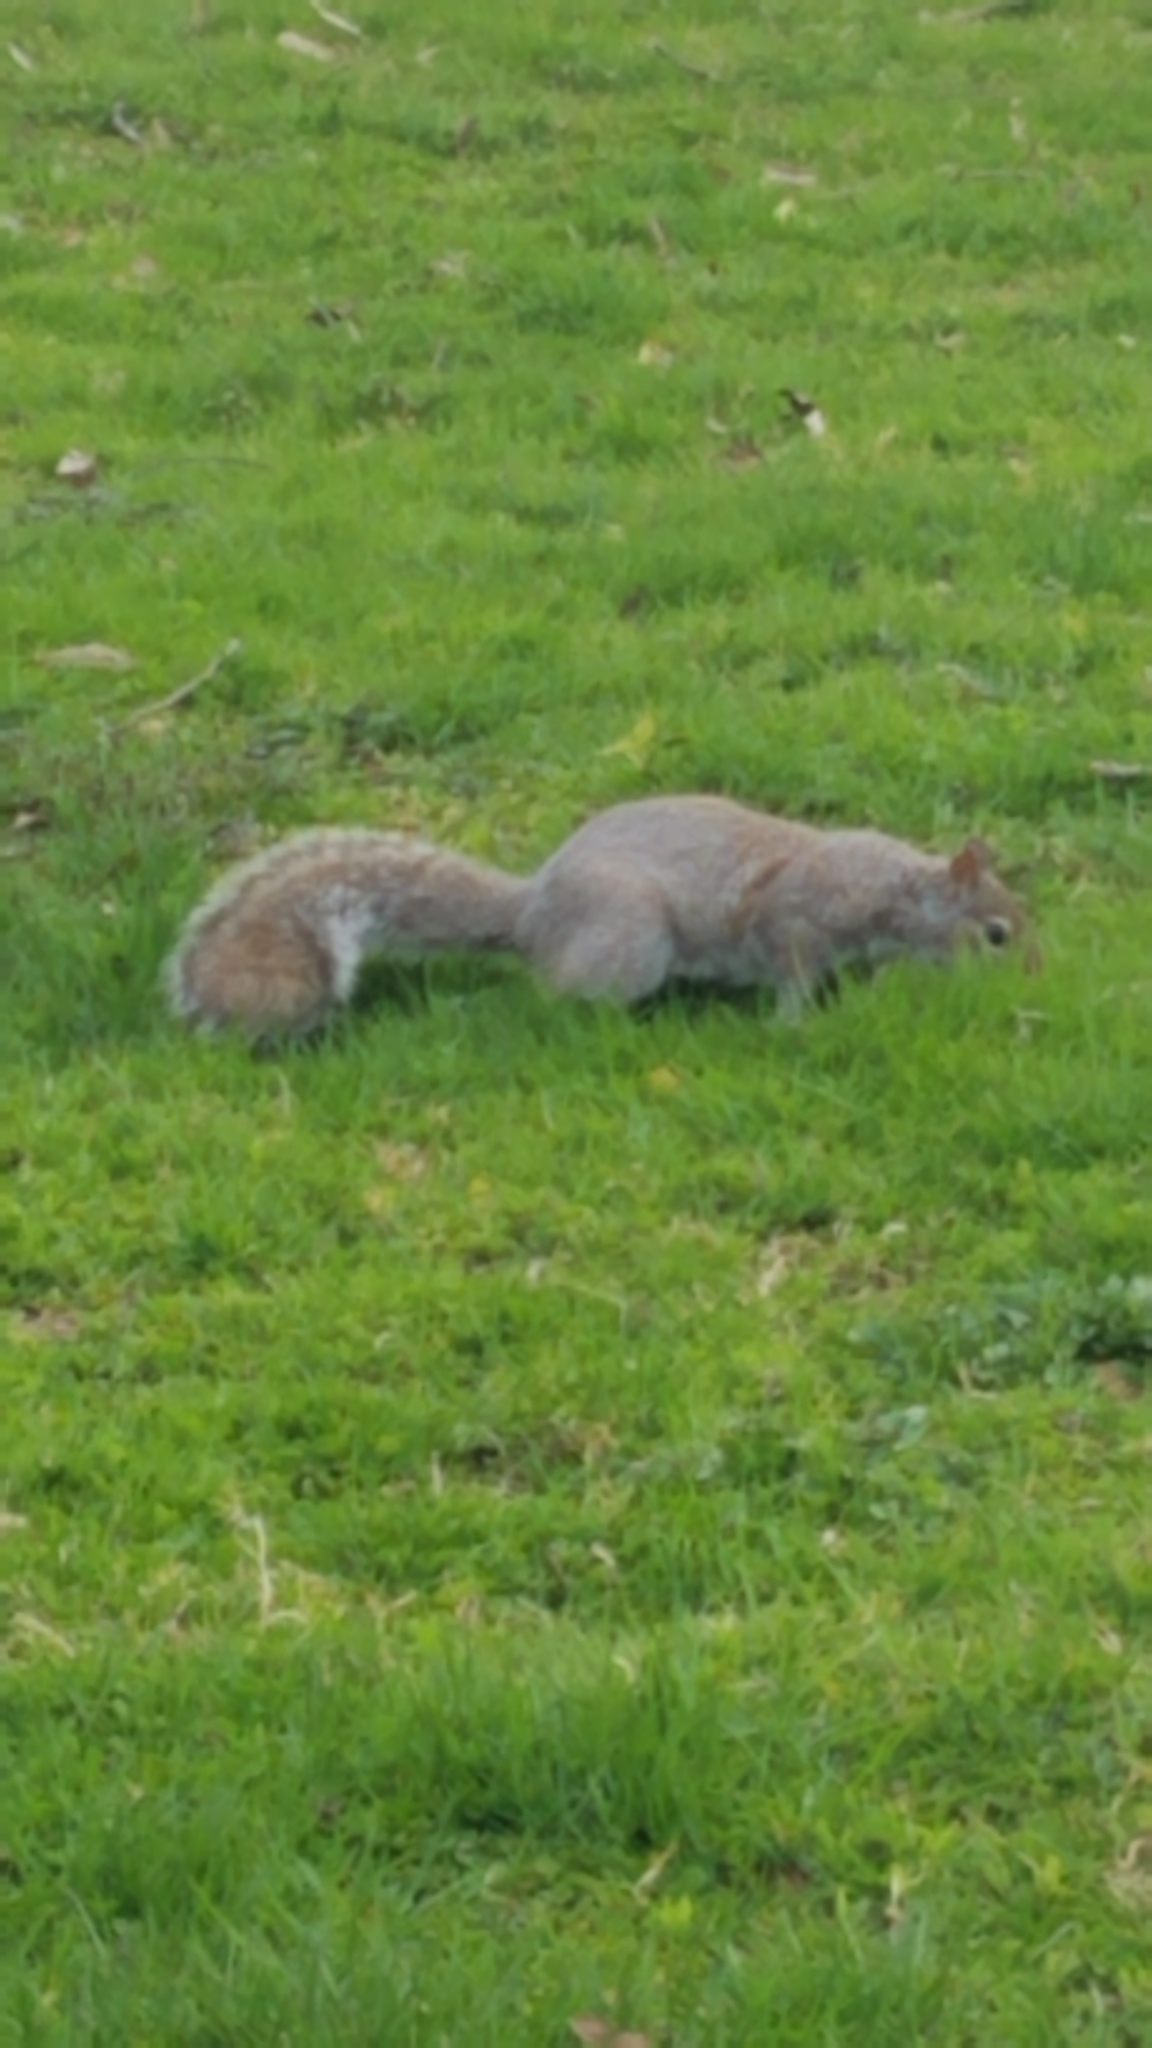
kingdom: Animalia
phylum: Chordata
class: Mammalia
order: Rodentia
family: Sciuridae
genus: Sciurus
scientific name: Sciurus carolinensis
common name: Eastern gray squirrel
